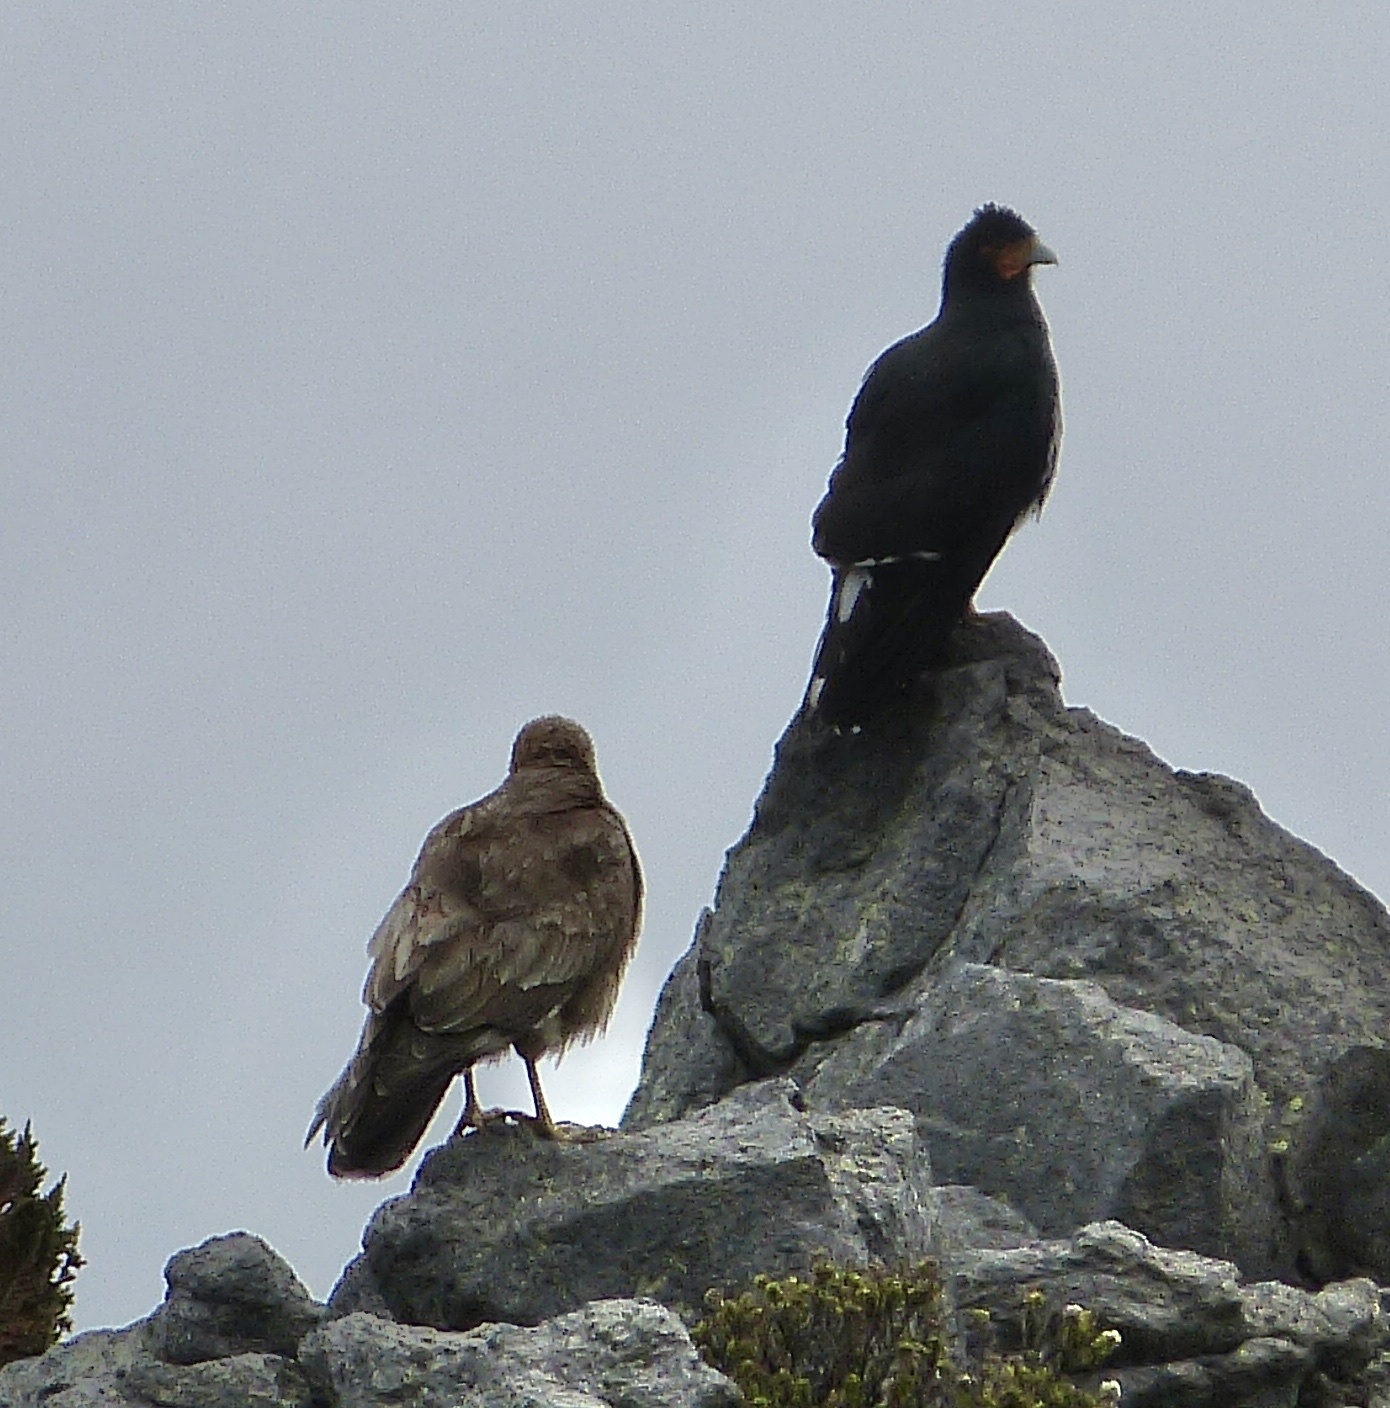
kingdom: Animalia
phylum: Chordata
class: Aves
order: Falconiformes
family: Falconidae
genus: Daptrius
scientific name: Daptrius
